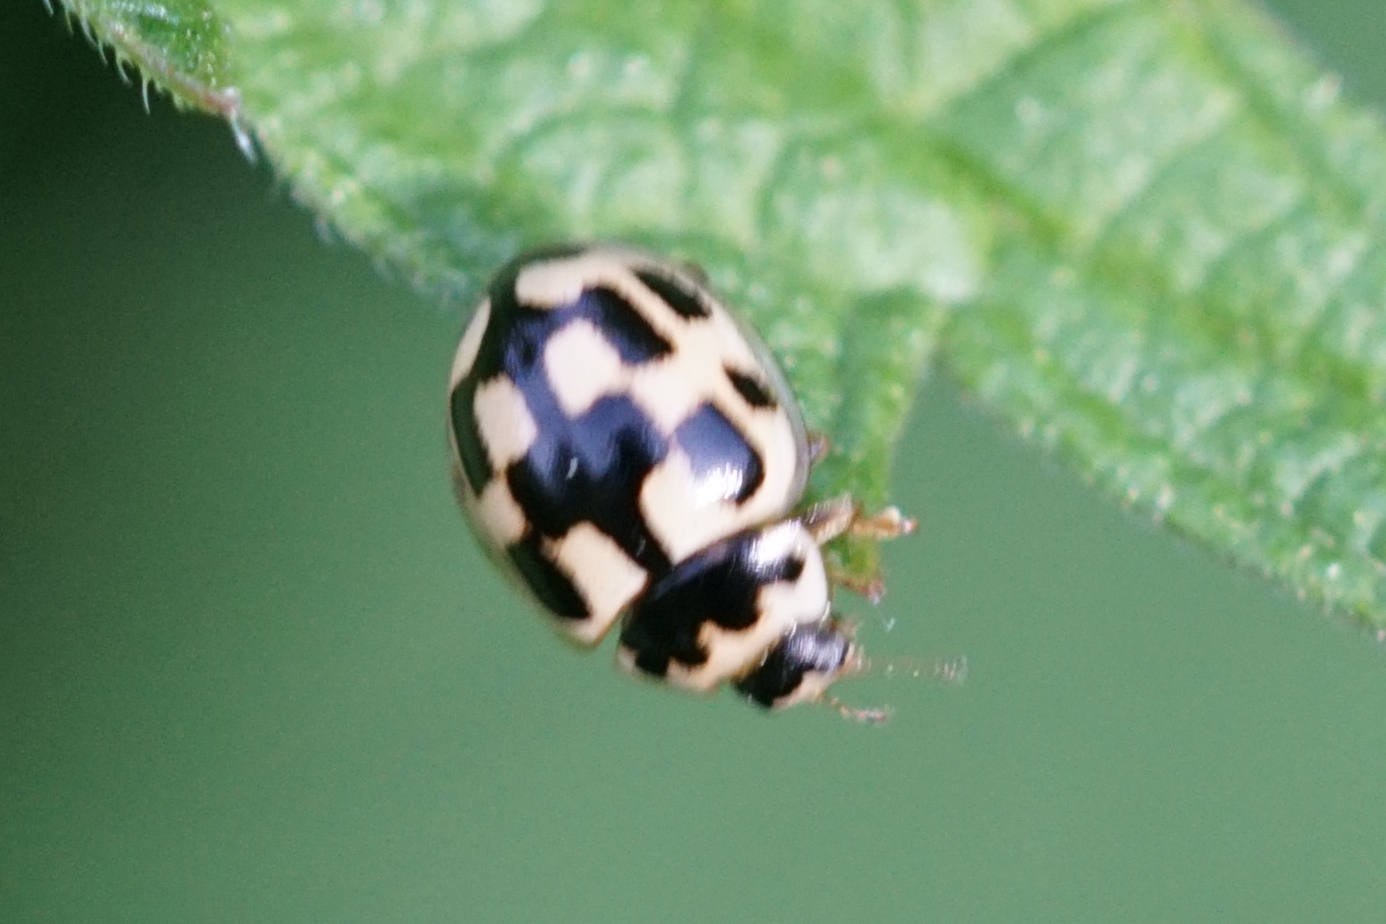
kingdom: Animalia
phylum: Arthropoda
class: Insecta
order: Coleoptera
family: Coccinellidae
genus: Propylaea
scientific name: Propylaea quatuordecimpunctata
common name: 14-spotted ladybird beetle
